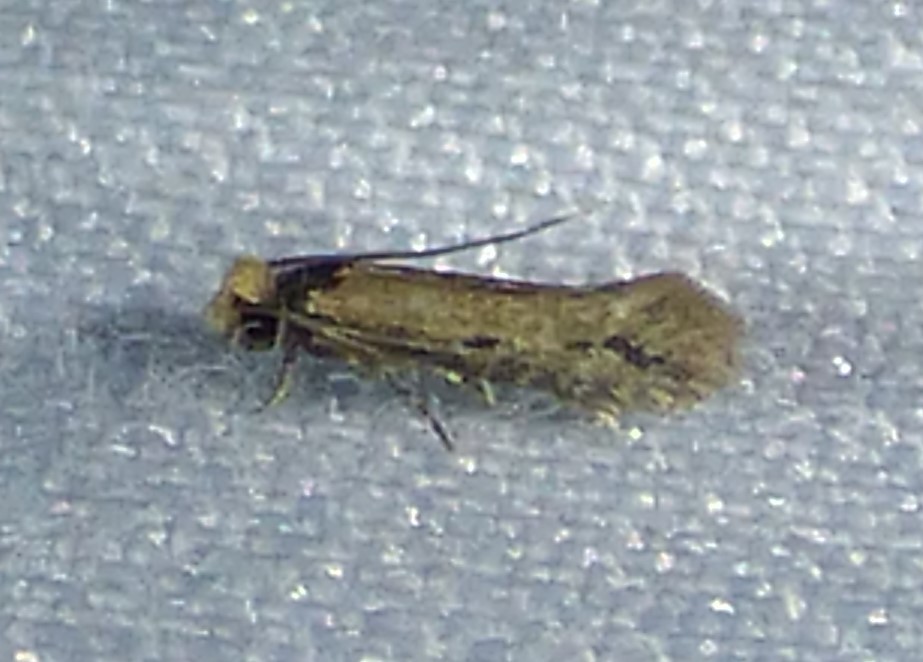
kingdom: Animalia
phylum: Arthropoda
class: Insecta
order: Lepidoptera
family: Meessiidae
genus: Homostinea
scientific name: Homostinea curviliniella
